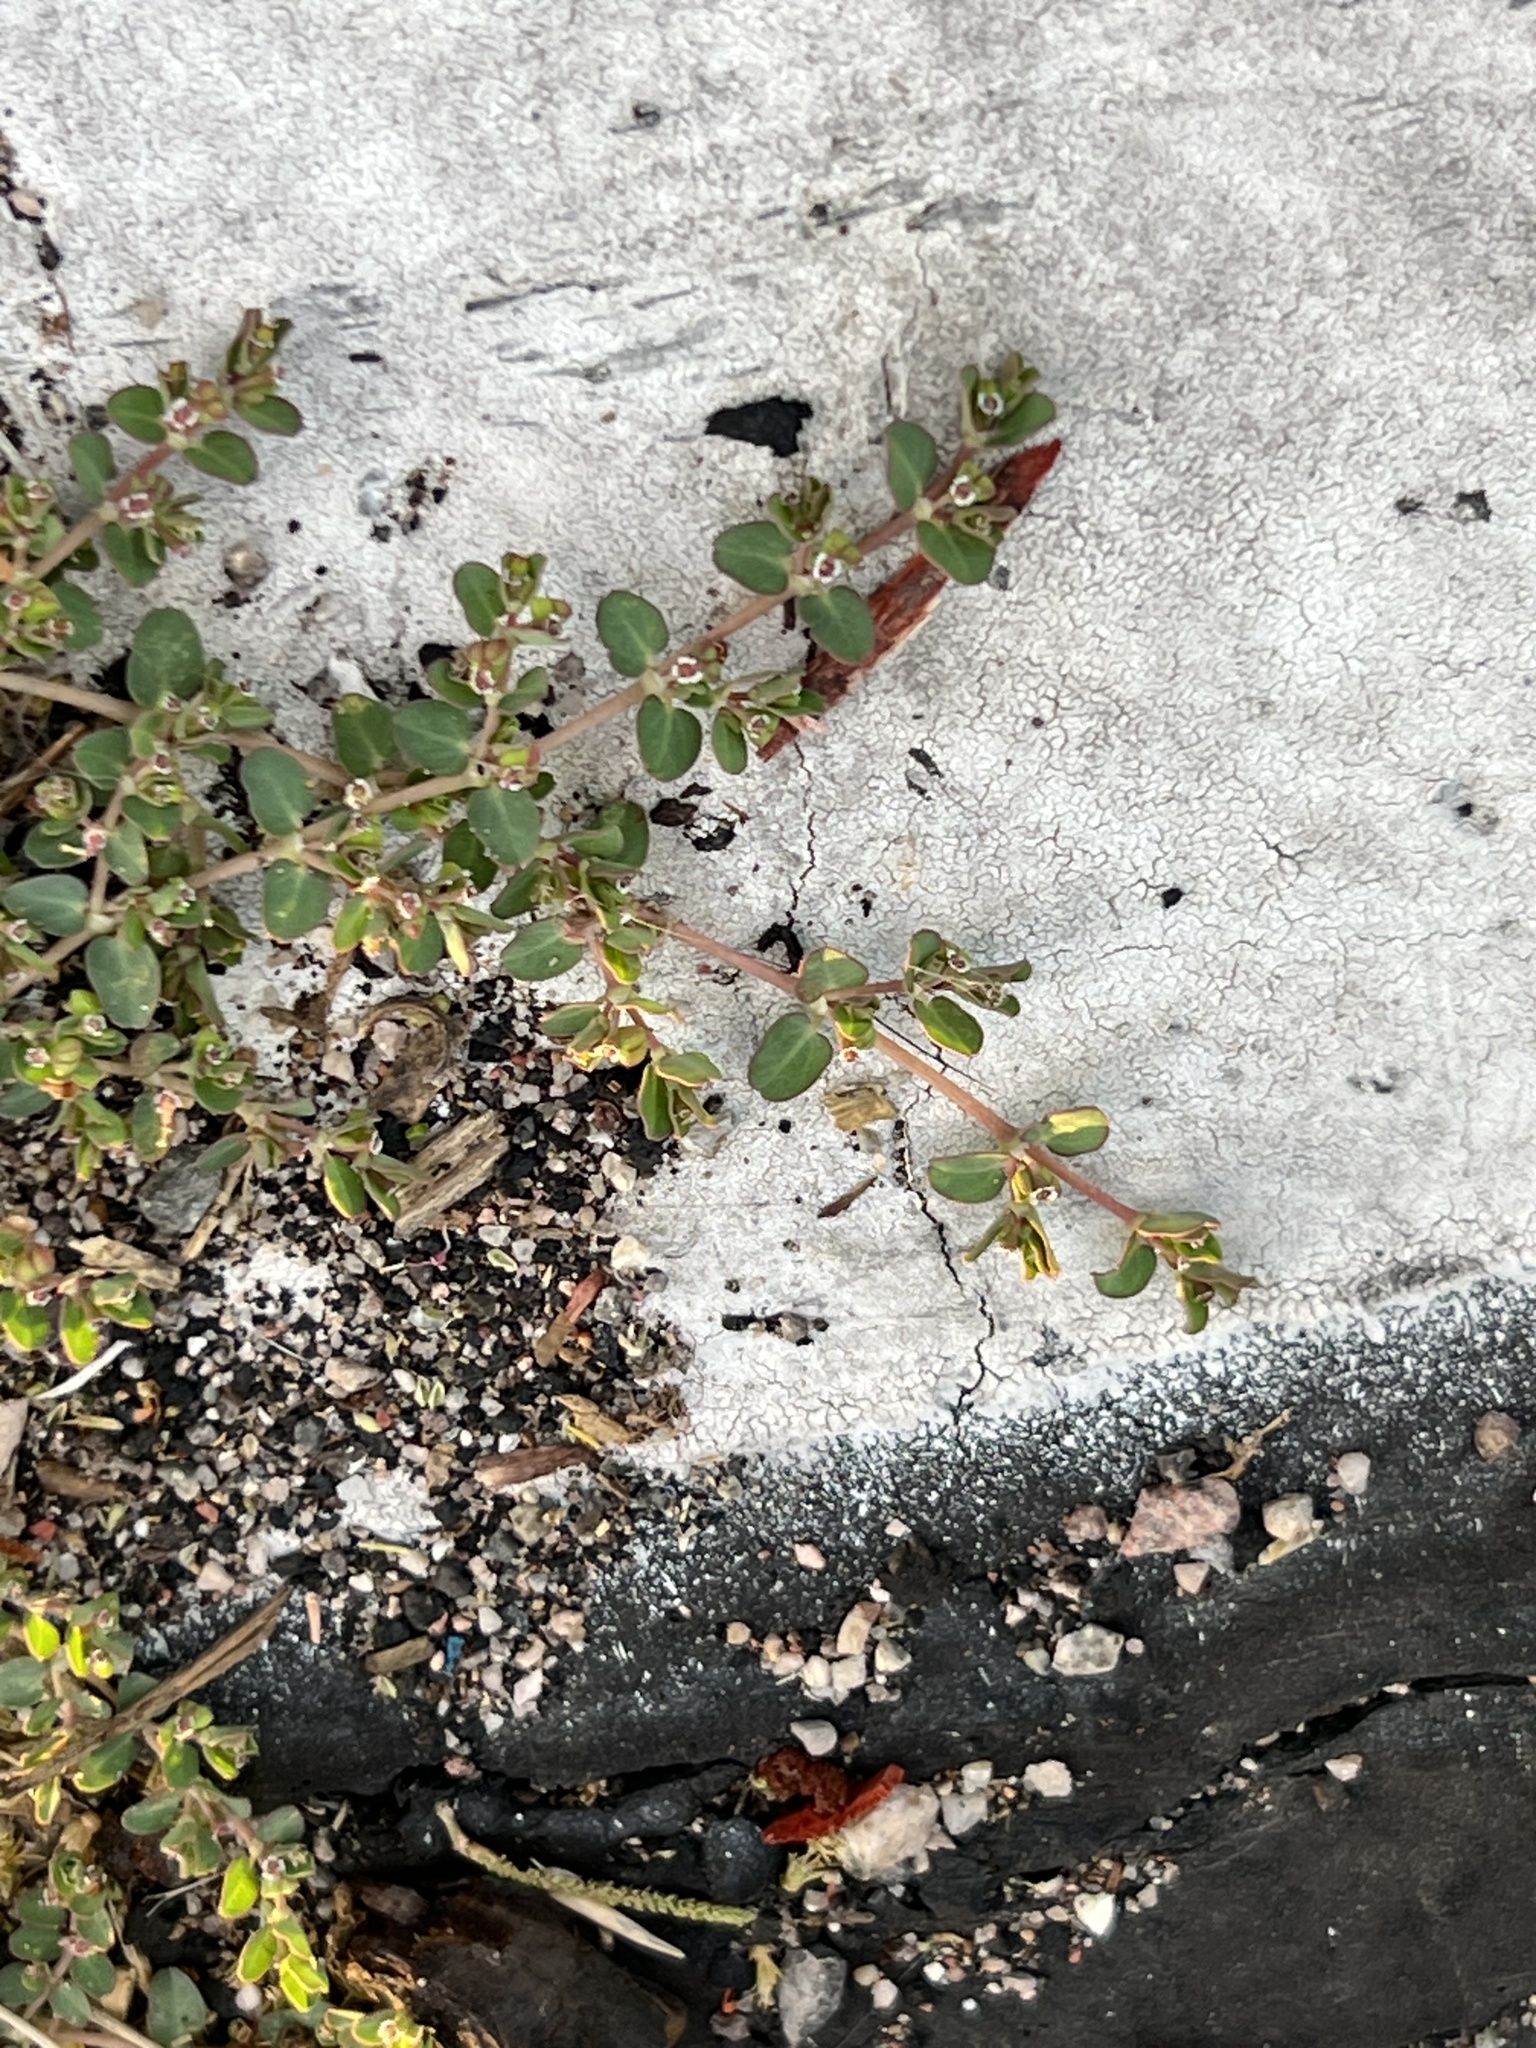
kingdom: Plantae
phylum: Tracheophyta
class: Magnoliopsida
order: Malpighiales
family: Euphorbiaceae
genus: Euphorbia
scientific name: Euphorbia serpens
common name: Matted sandmat
